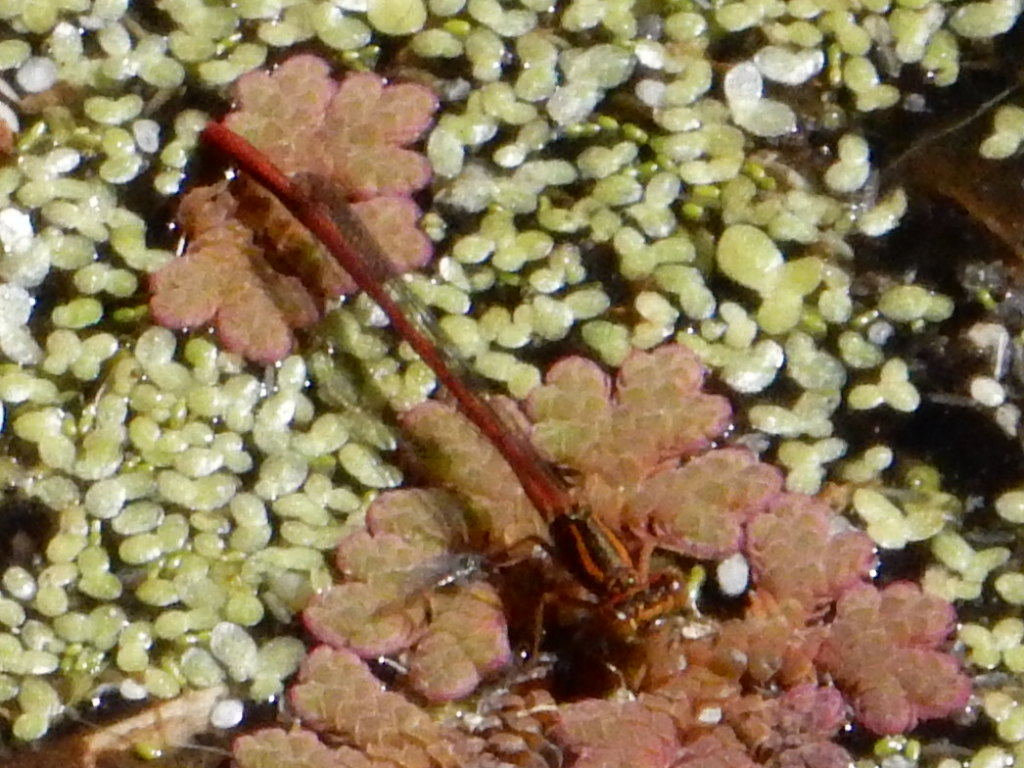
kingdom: Animalia
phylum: Arthropoda
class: Insecta
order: Odonata
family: Coenagrionidae
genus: Xanthocnemis
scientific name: Xanthocnemis zealandica
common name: Common redcoat damselfly
